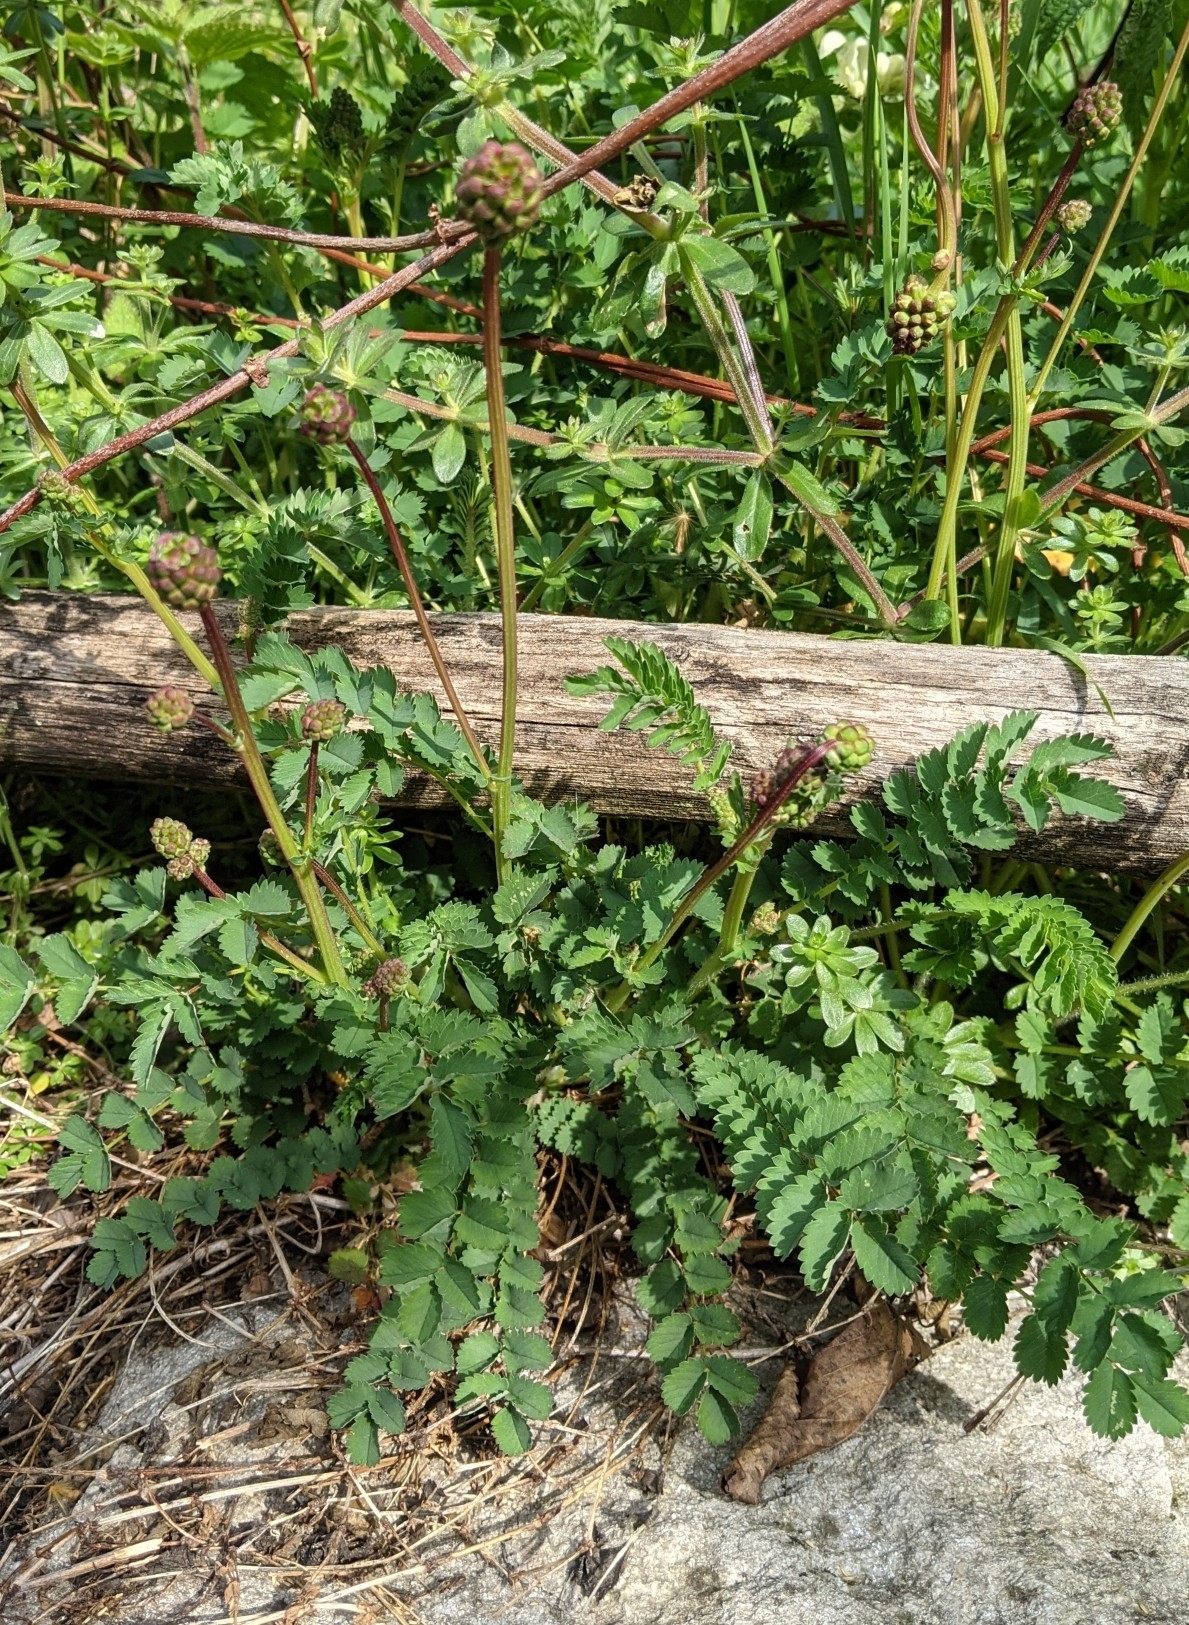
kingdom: Plantae
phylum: Tracheophyta
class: Magnoliopsida
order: Rosales
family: Rosaceae
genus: Poterium
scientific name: Poterium sanguisorba
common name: Salad burnet
